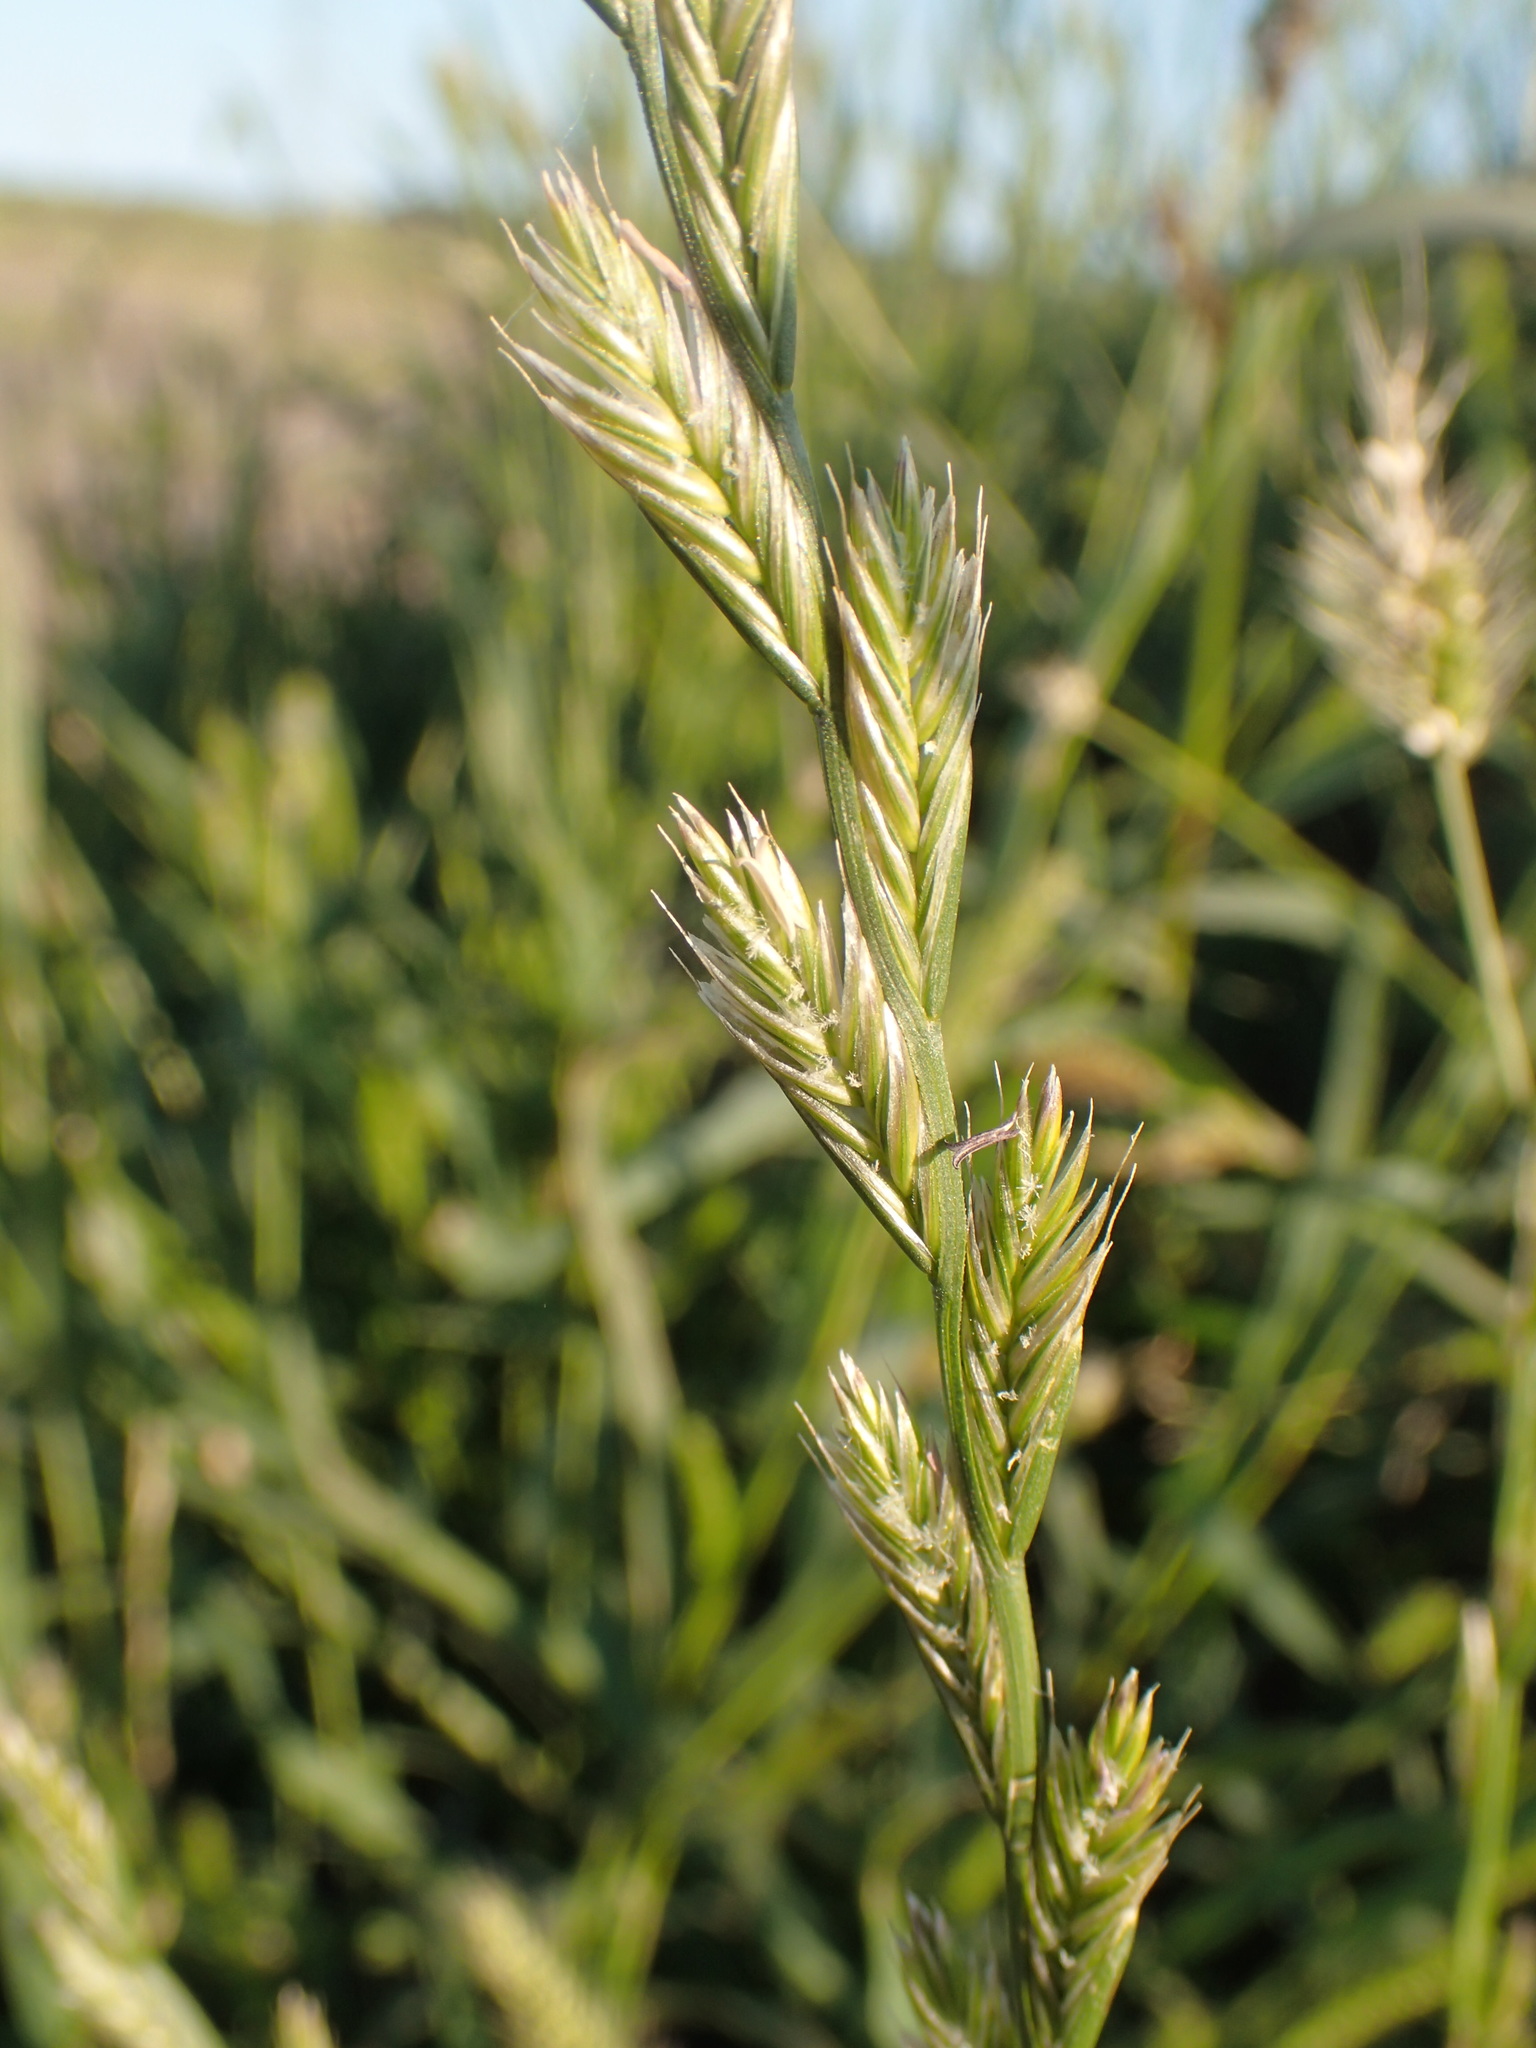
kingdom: Plantae
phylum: Tracheophyta
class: Liliopsida
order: Poales
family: Poaceae
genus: Lolium
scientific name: Lolium perenne
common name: Perennial ryegrass
